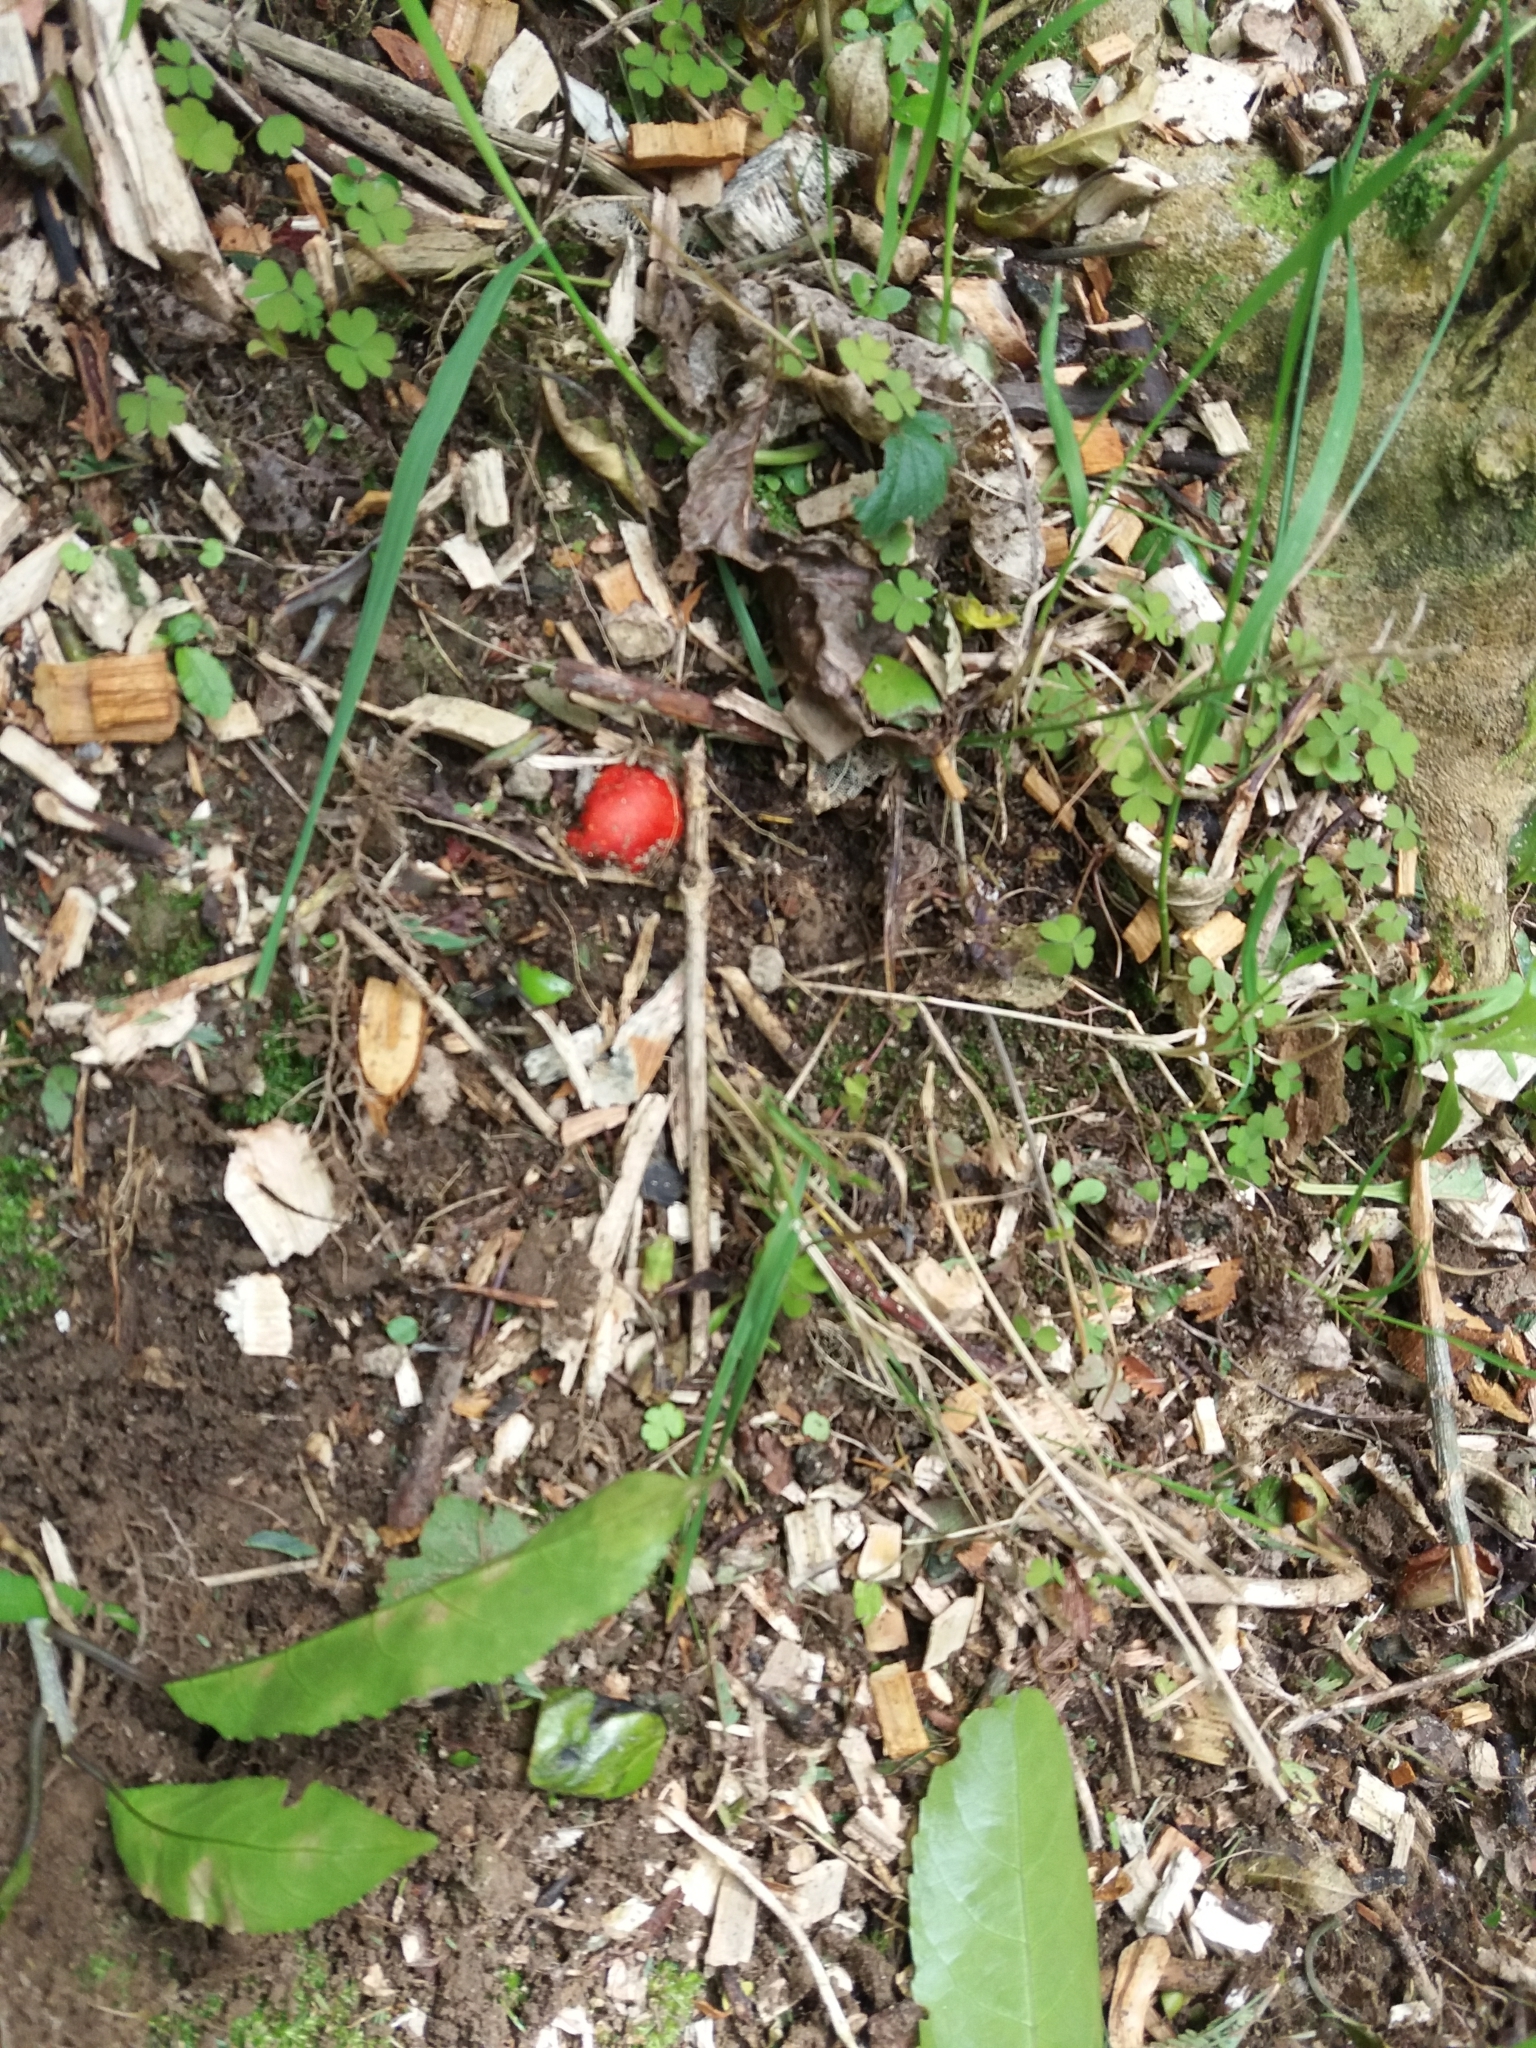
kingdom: Fungi
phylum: Basidiomycota
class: Agaricomycetes
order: Agaricales
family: Strophariaceae
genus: Leratiomyces
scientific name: Leratiomyces erythrocephalus
